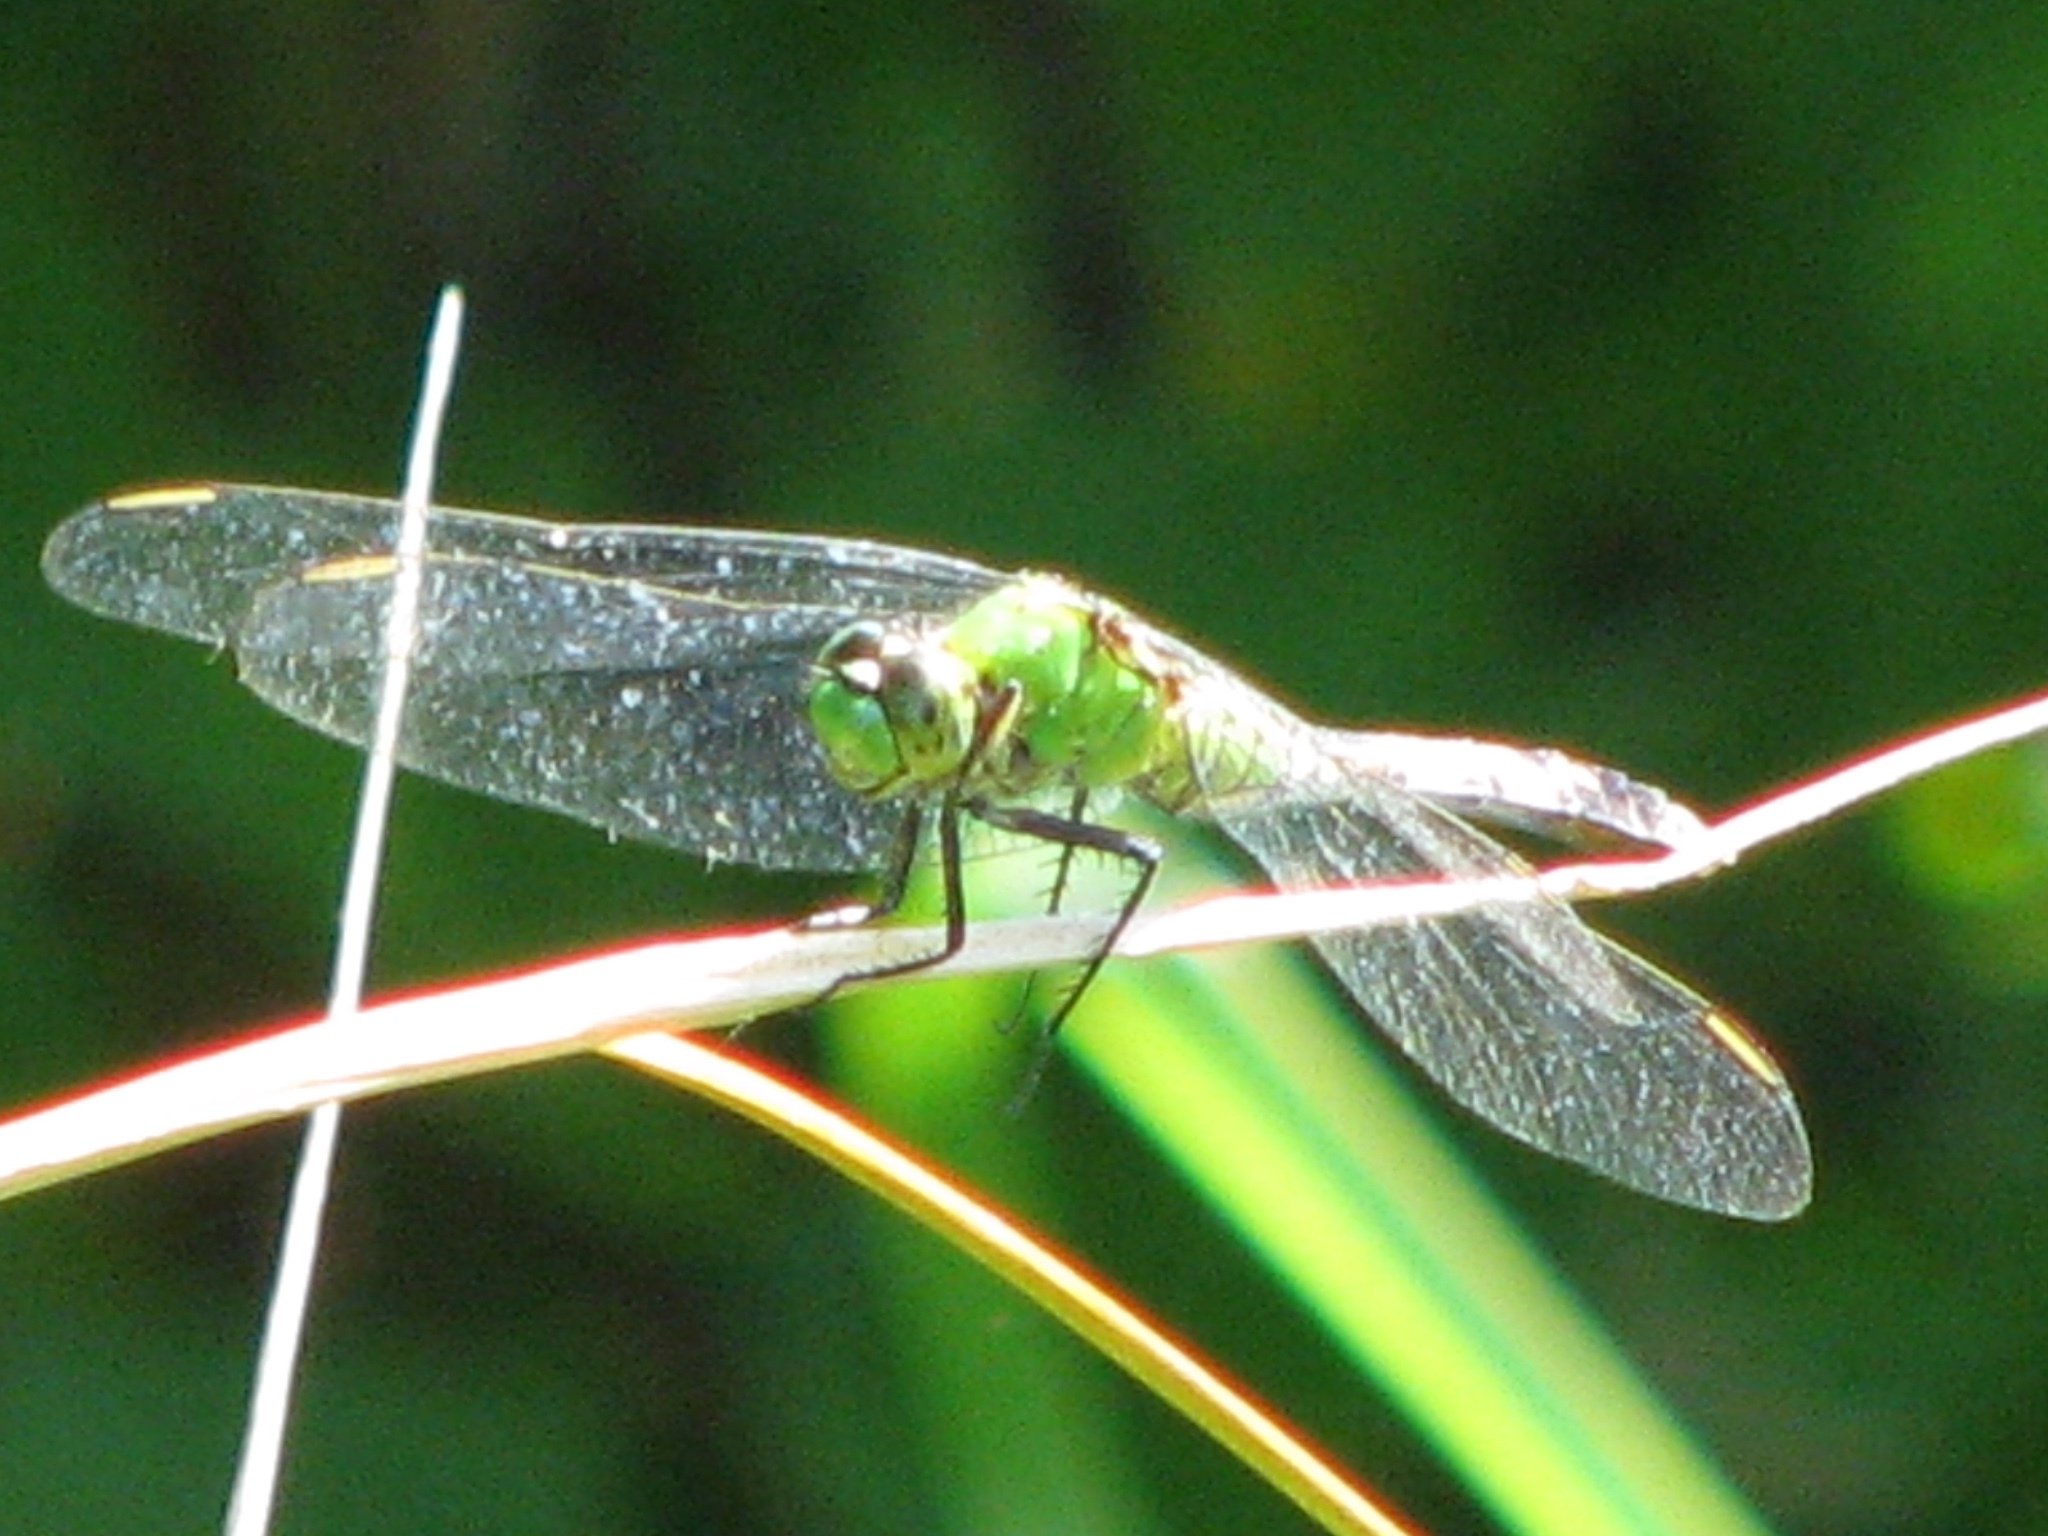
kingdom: Animalia
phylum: Arthropoda
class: Insecta
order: Odonata
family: Libellulidae
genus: Erythemis
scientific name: Erythemis simplicicollis
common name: Eastern pondhawk
